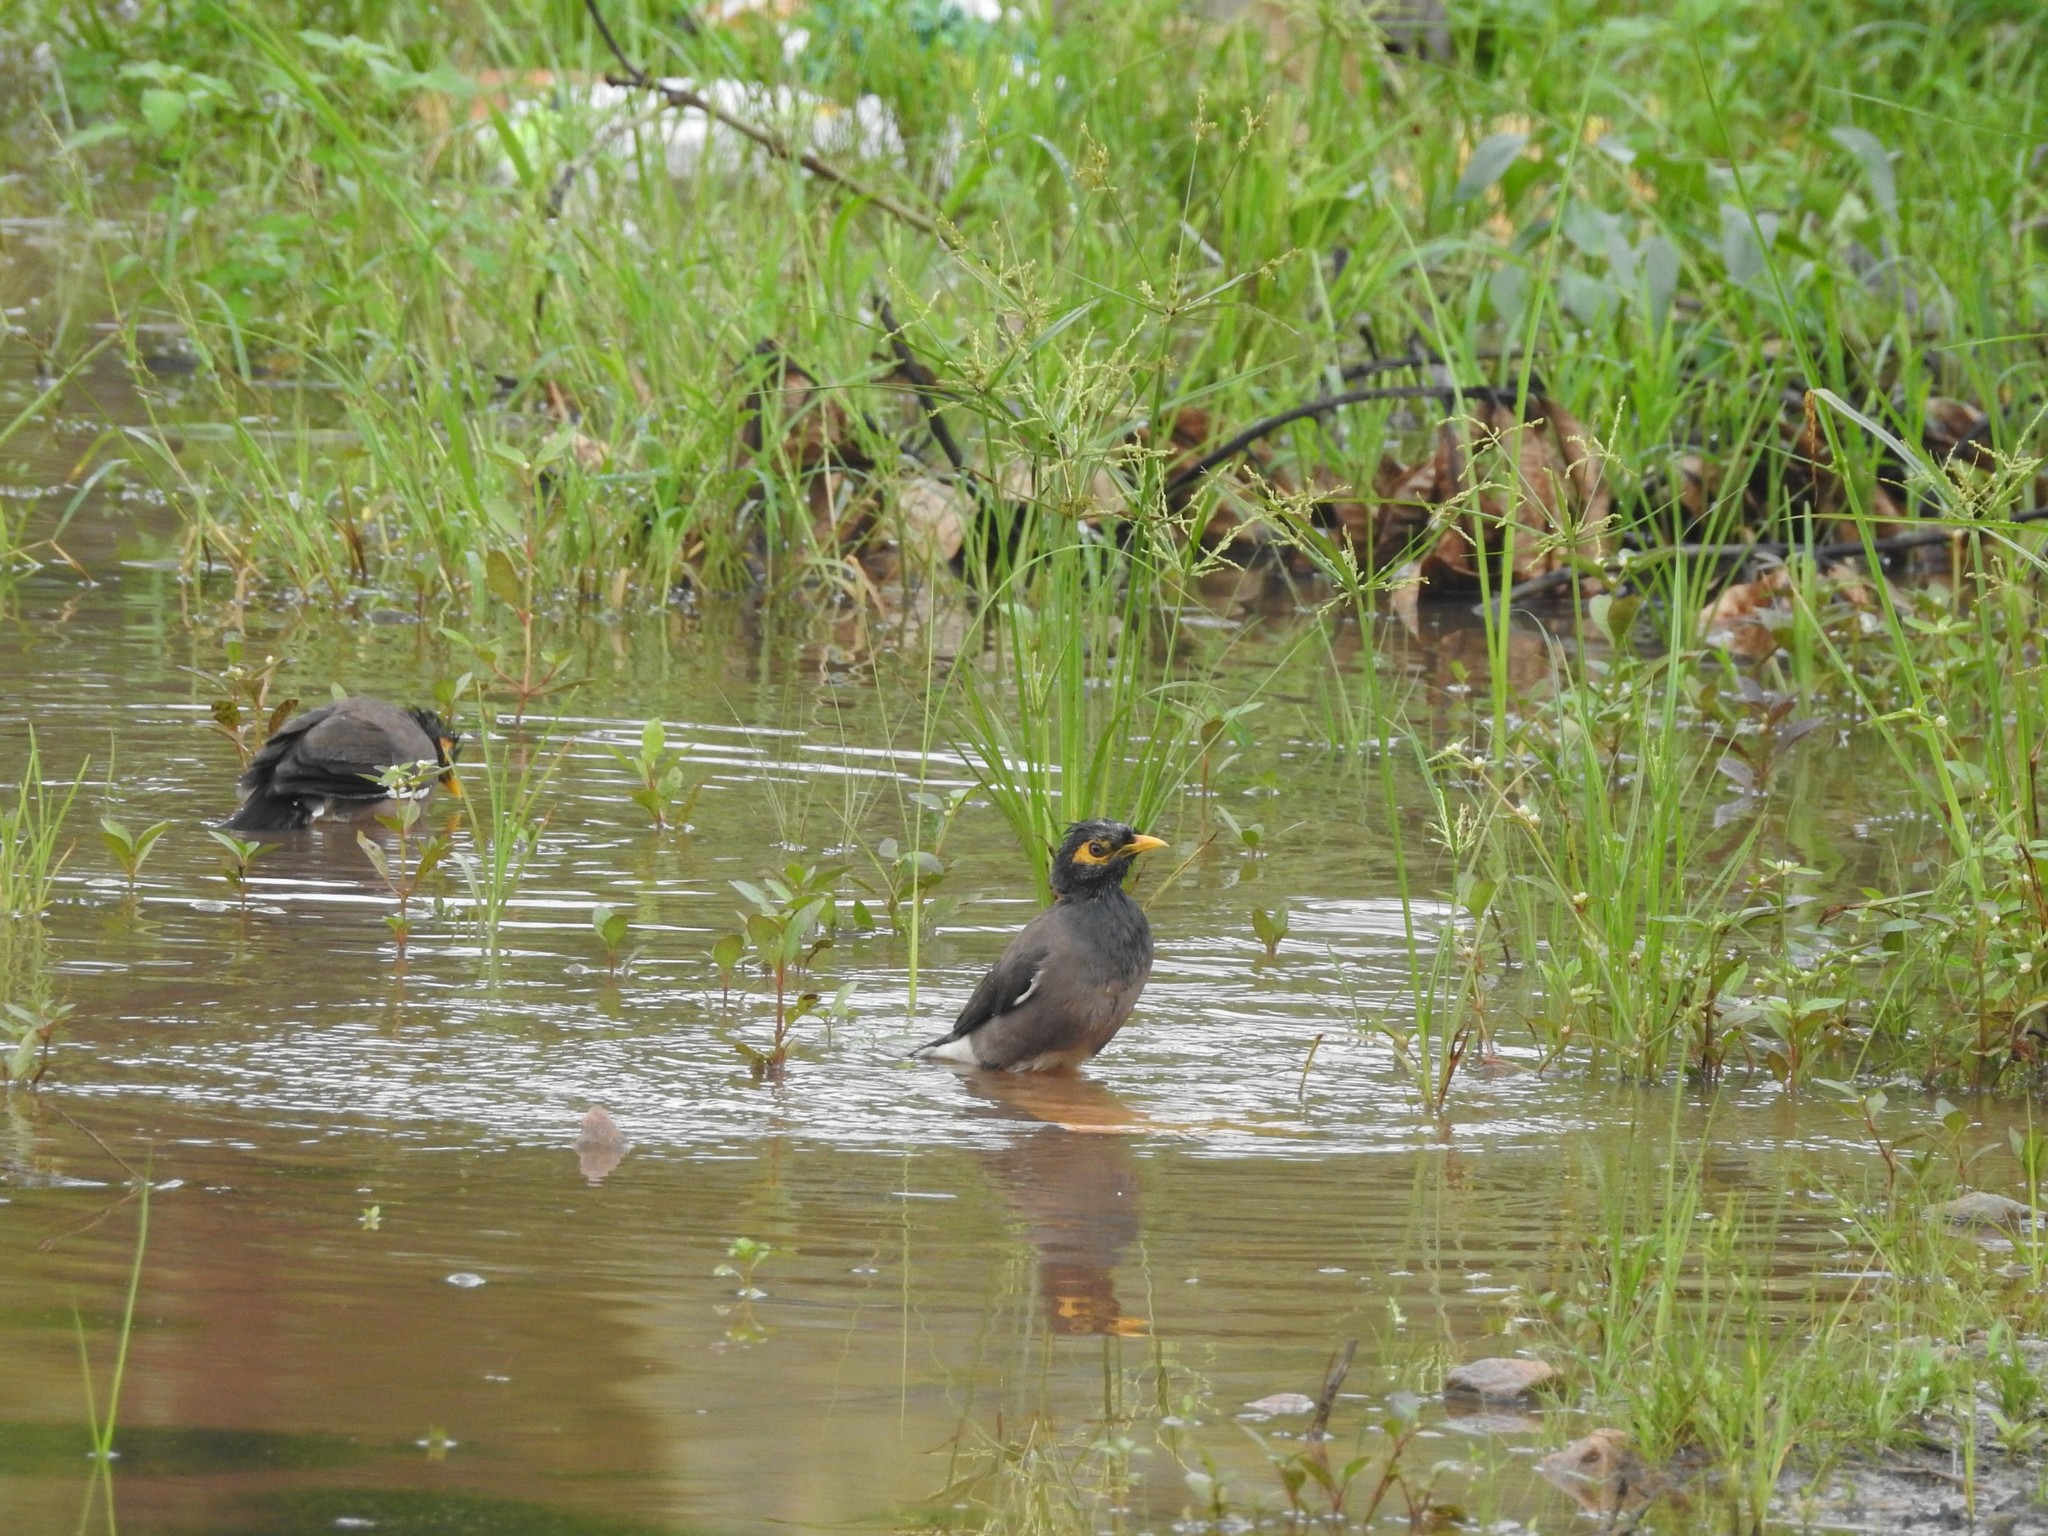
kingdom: Animalia
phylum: Chordata
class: Aves
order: Passeriformes
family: Sturnidae
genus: Acridotheres
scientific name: Acridotheres tristis
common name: Common myna
